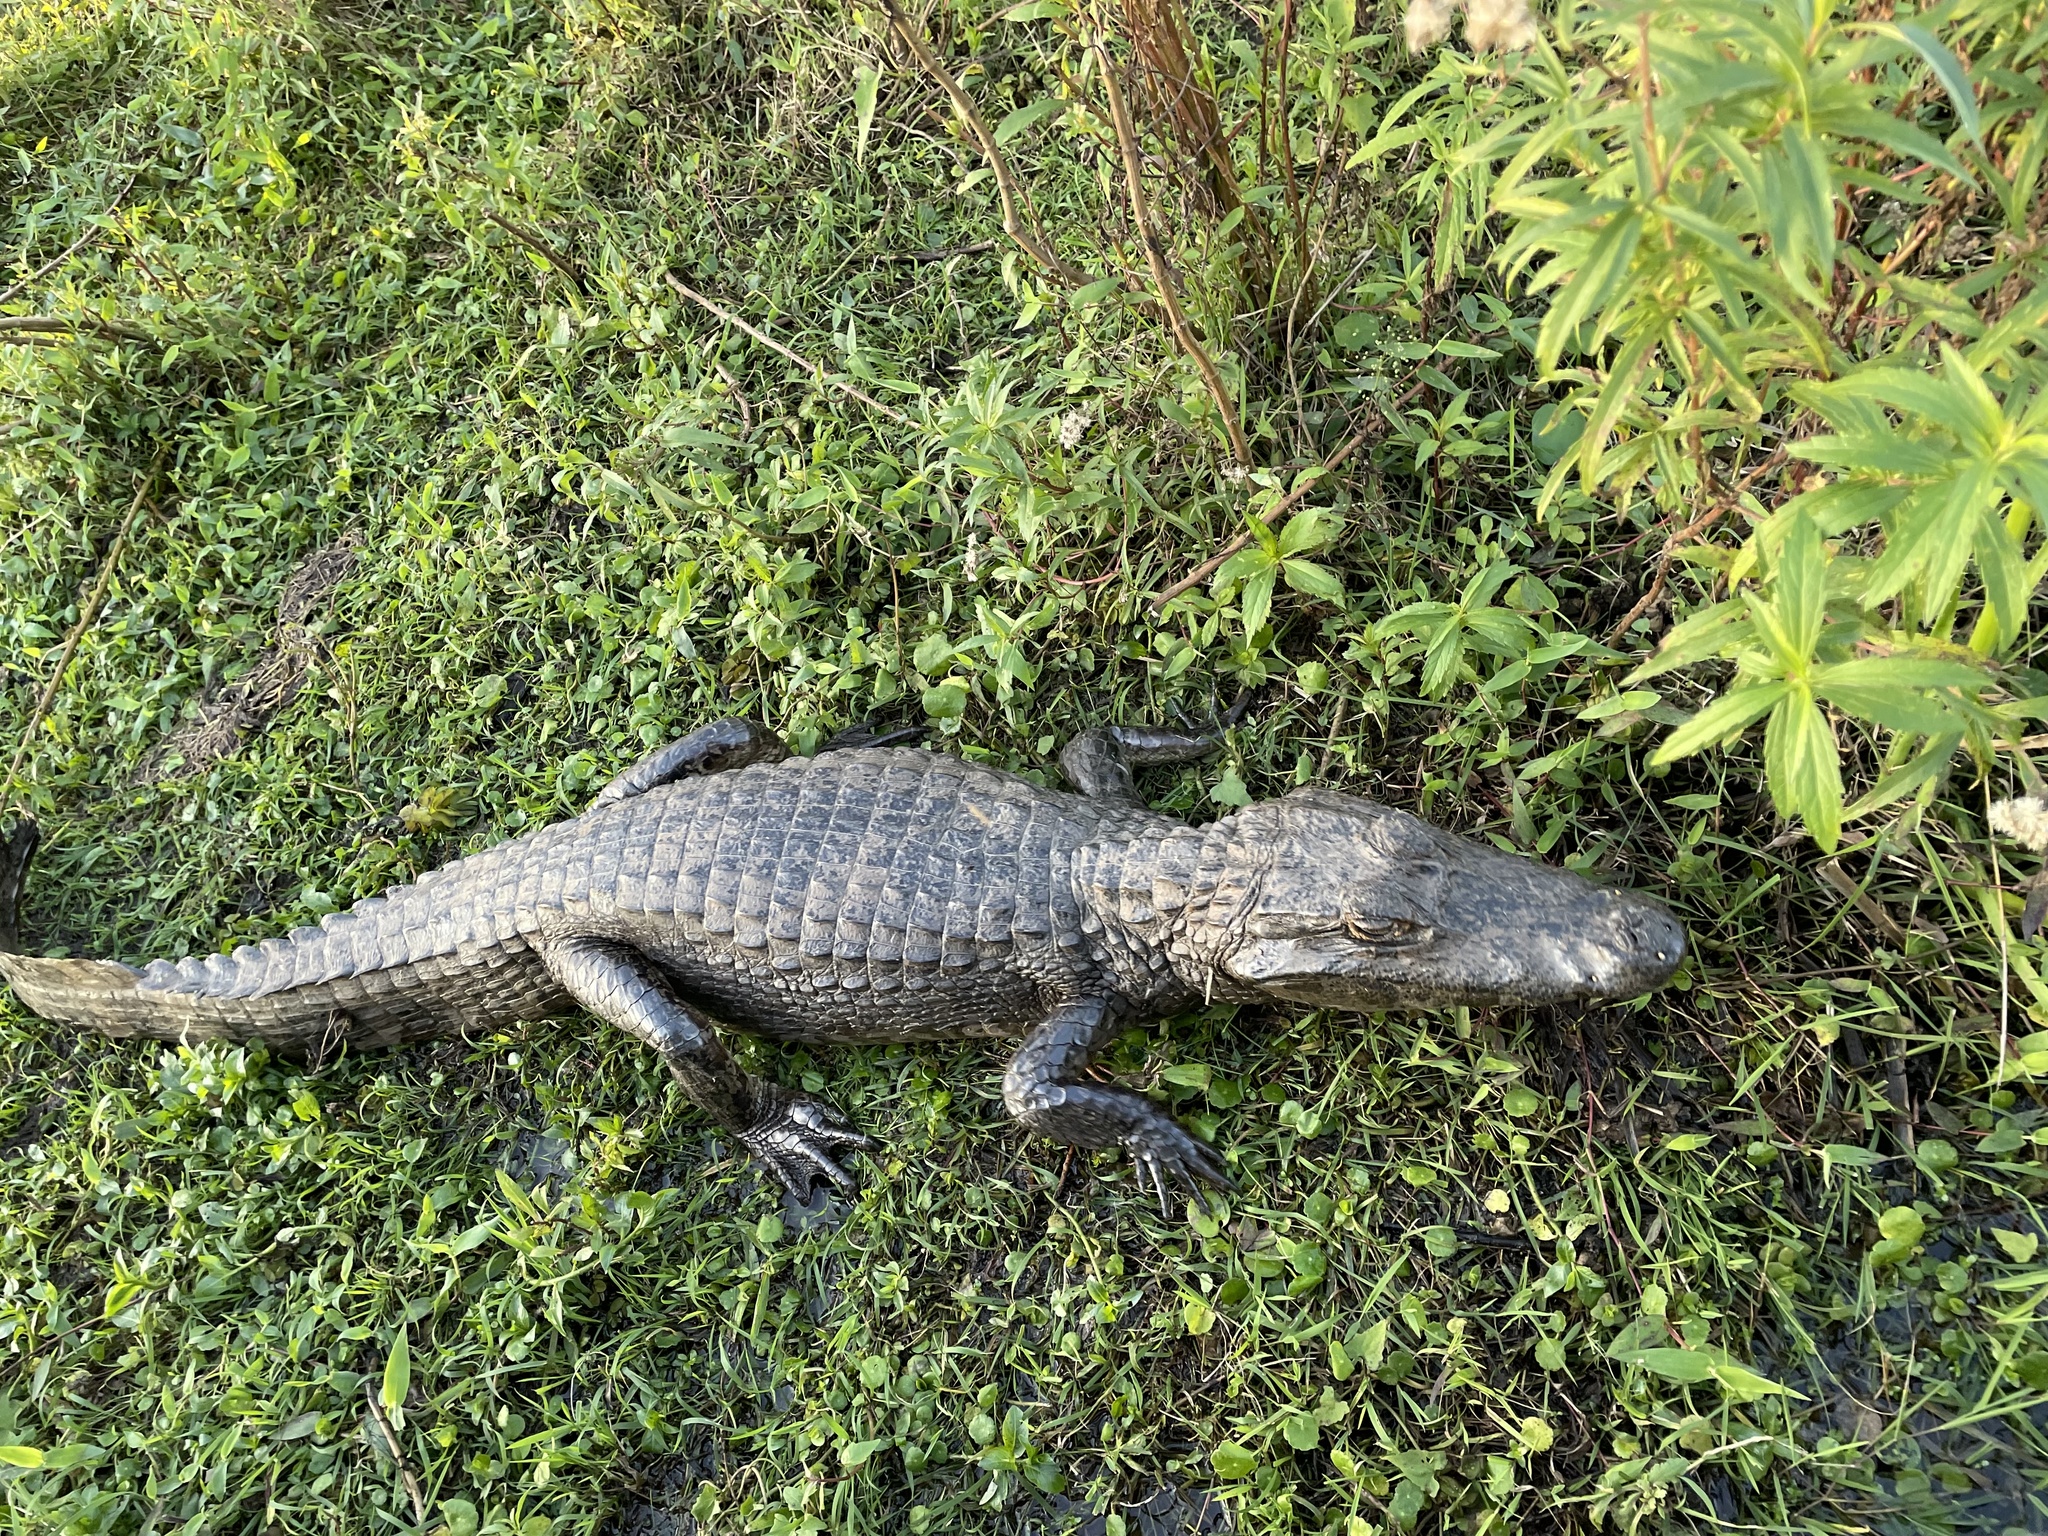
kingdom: Animalia
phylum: Chordata
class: Crocodylia
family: Alligatoridae
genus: Caiman
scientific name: Caiman yacare
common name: Yacare caiman
